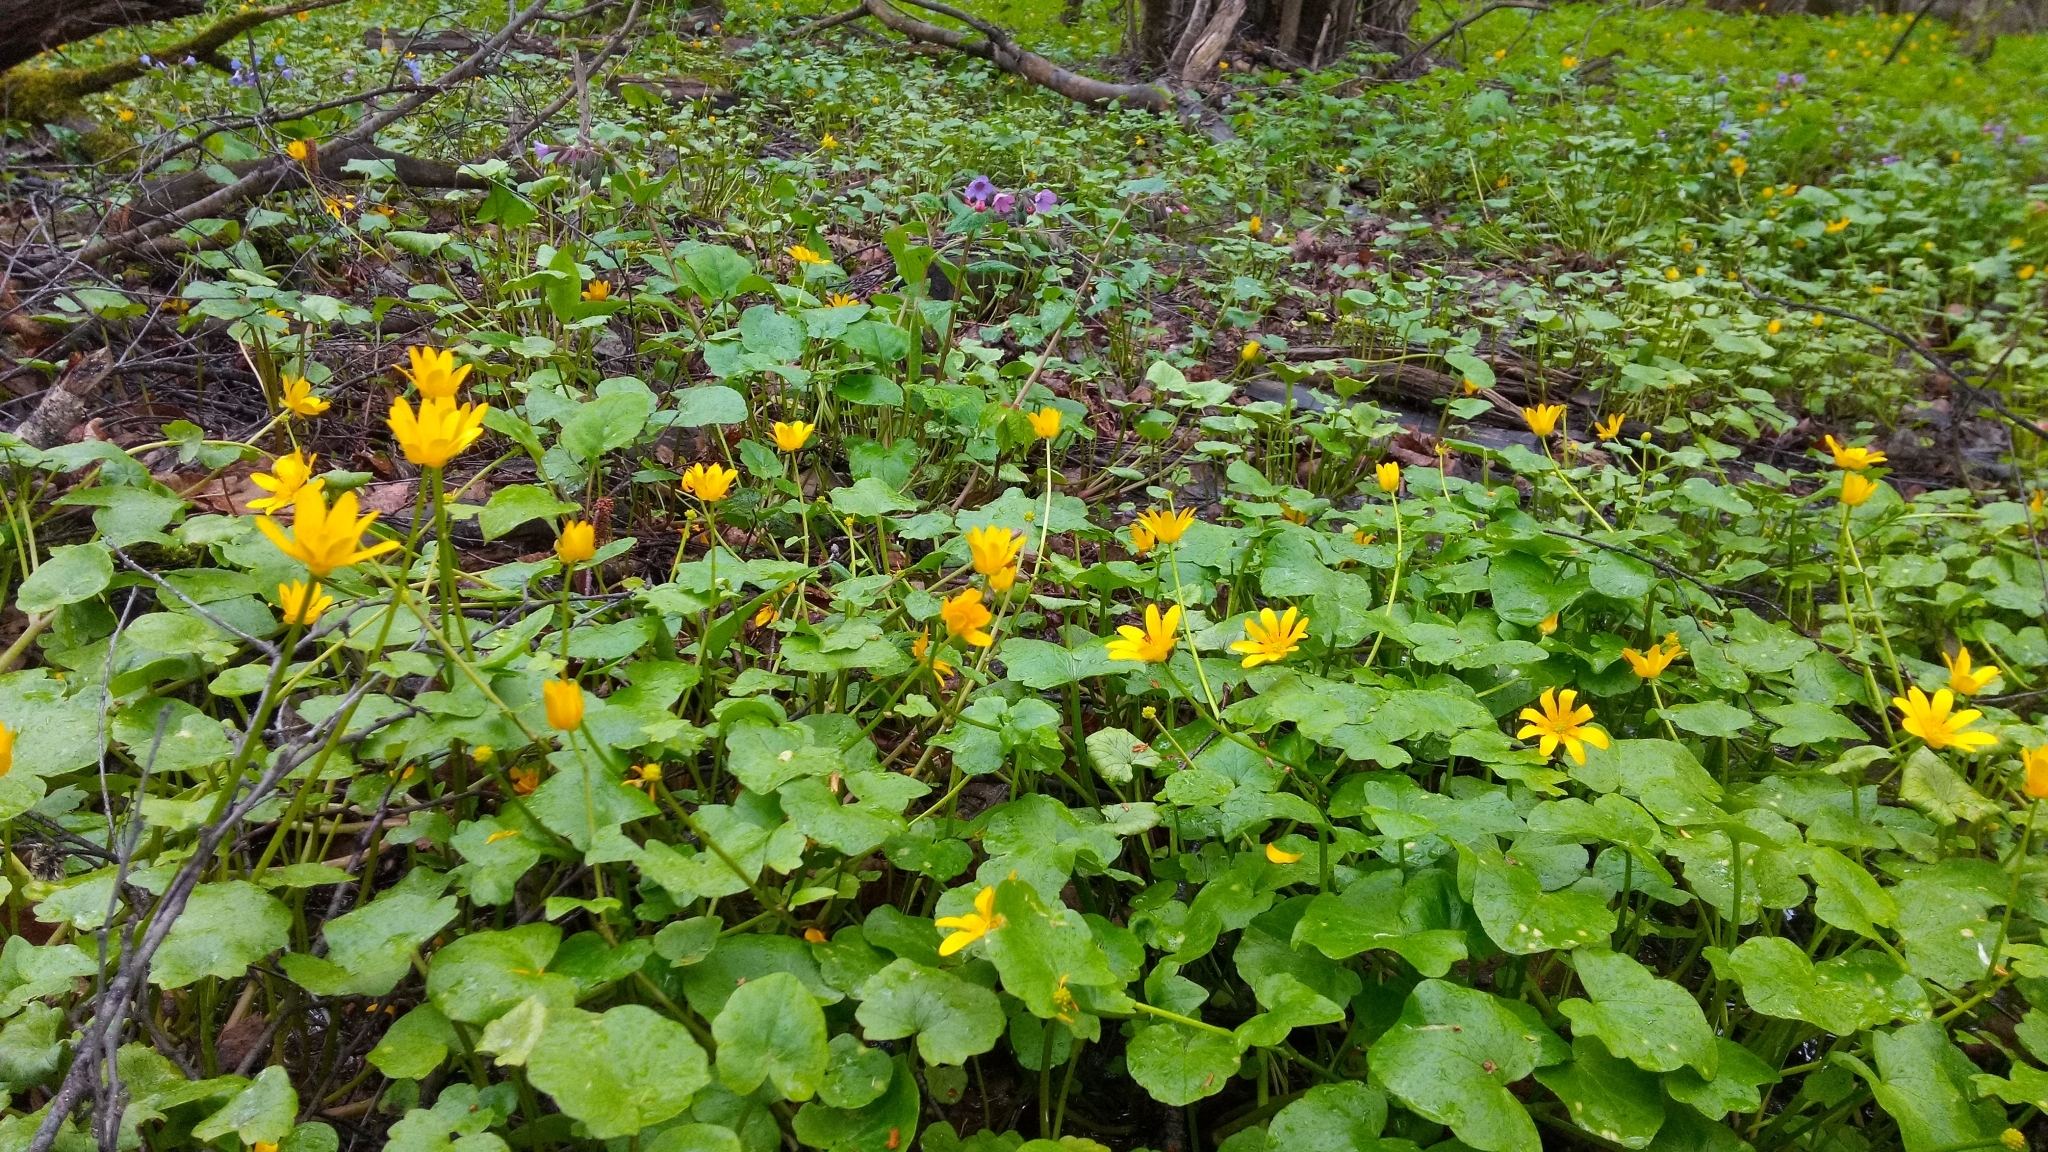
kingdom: Plantae
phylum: Tracheophyta
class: Magnoliopsida
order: Ranunculales
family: Ranunculaceae
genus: Ficaria
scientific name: Ficaria verna
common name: Lesser celandine
